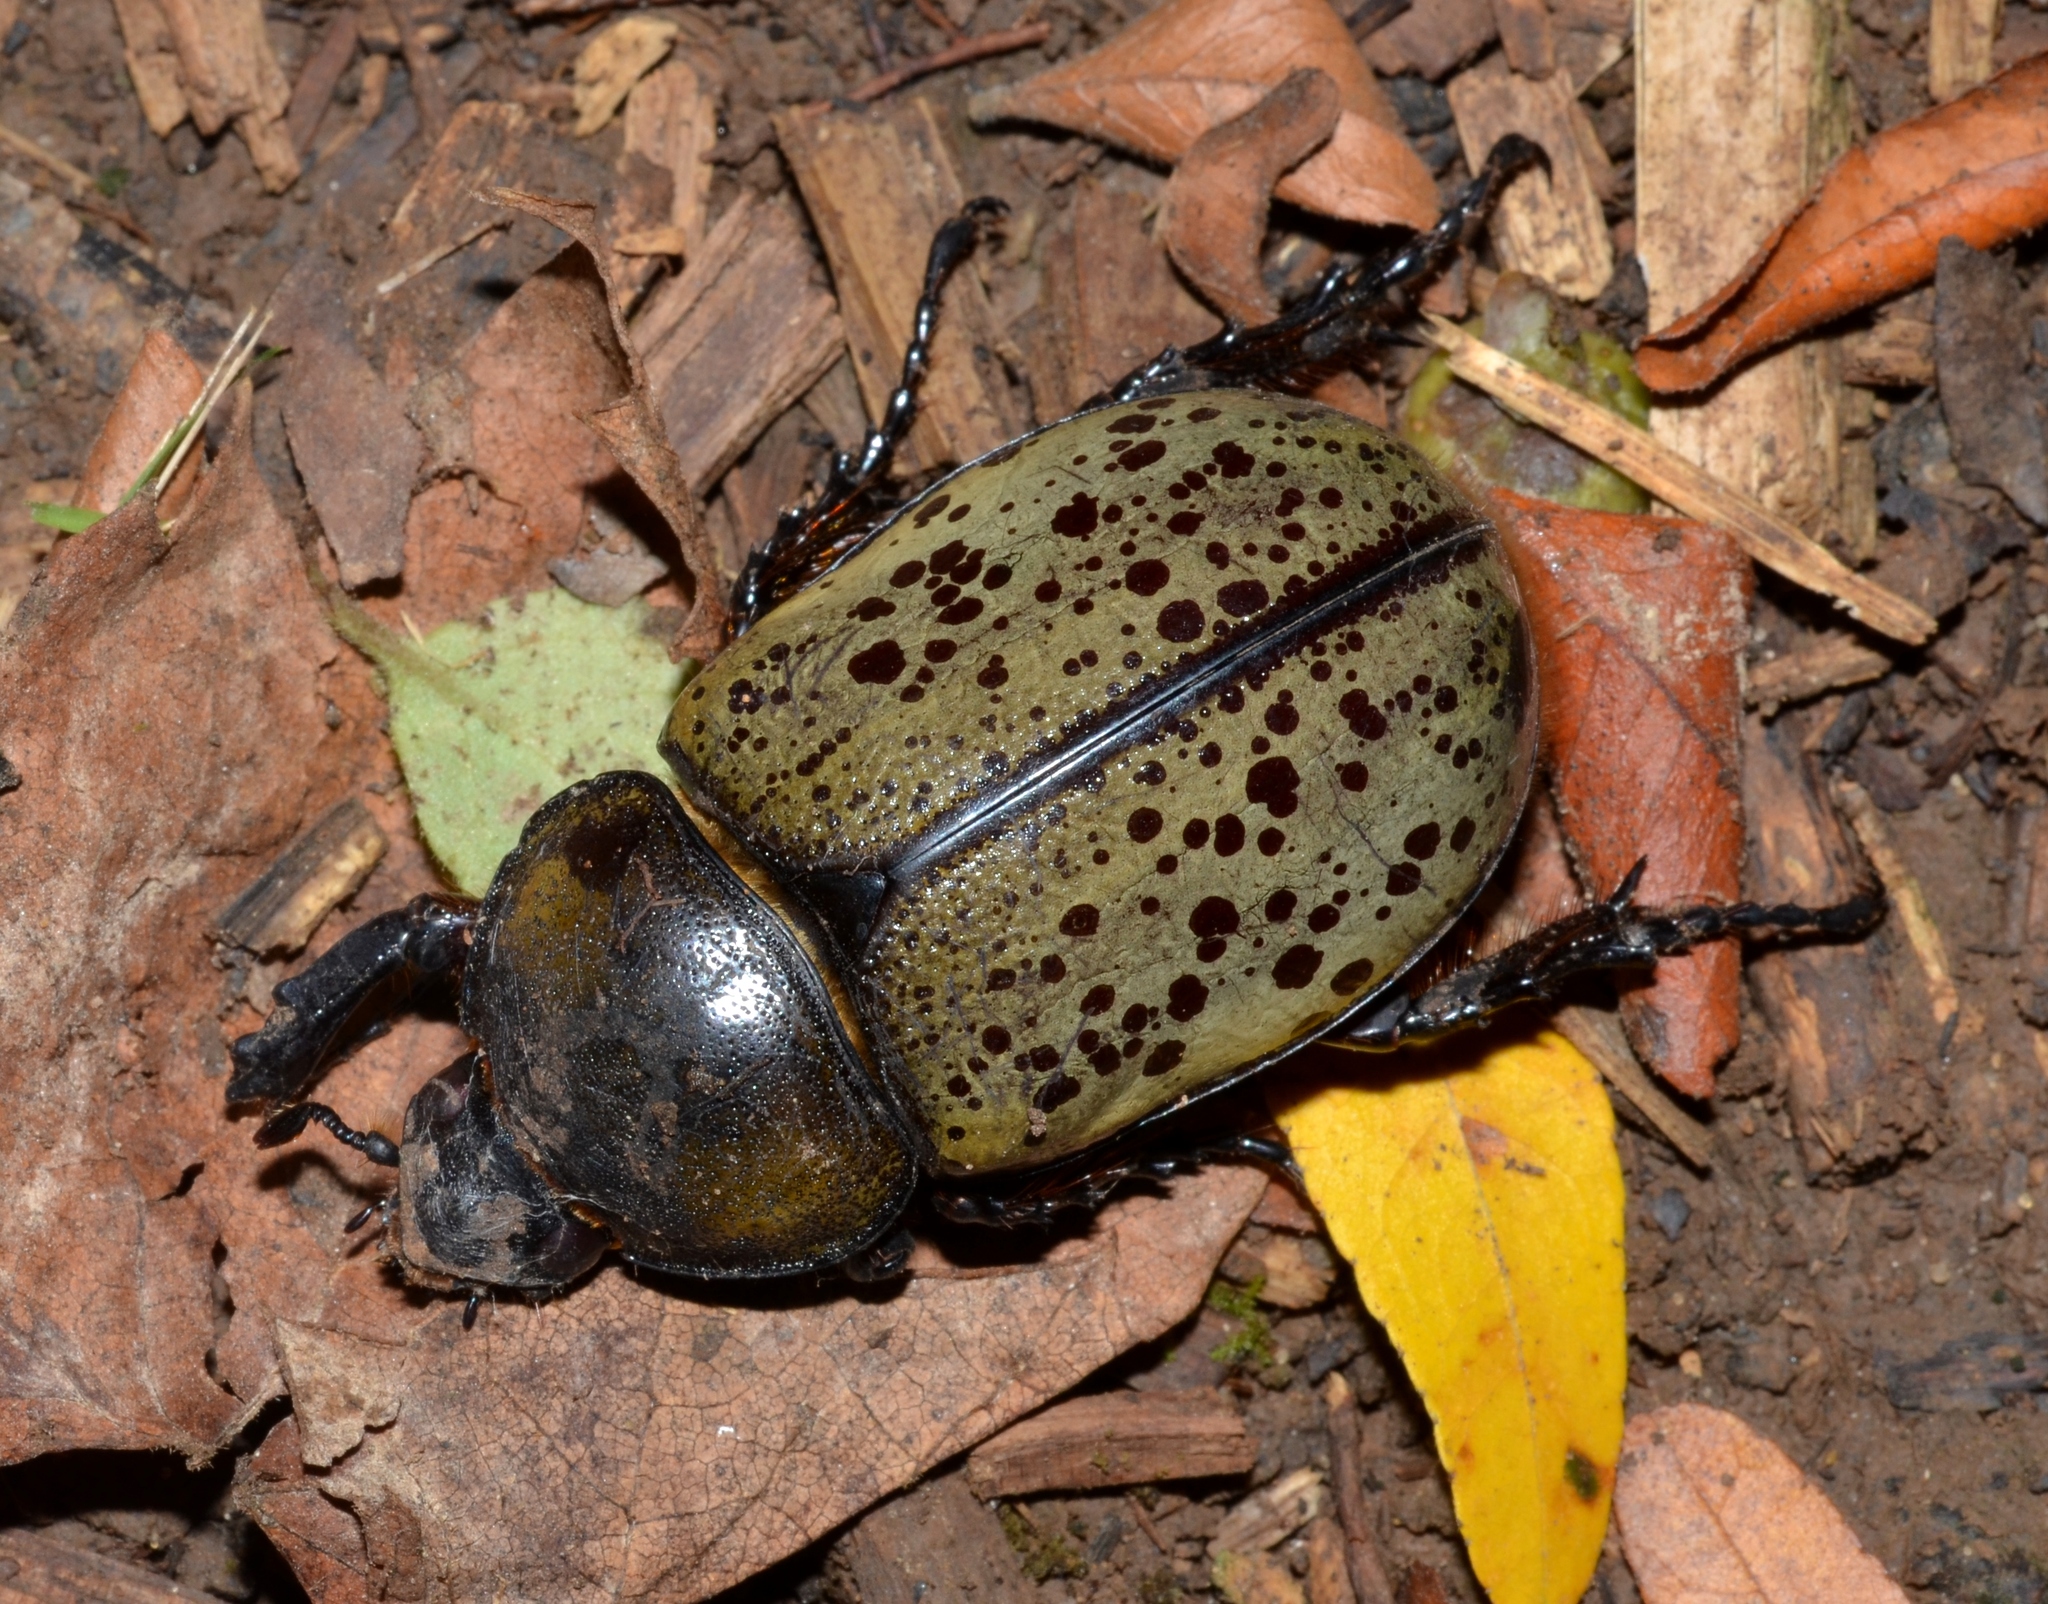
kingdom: Animalia
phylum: Arthropoda
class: Insecta
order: Coleoptera
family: Scarabaeidae
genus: Dynastes
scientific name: Dynastes tityus
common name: Eastern hercules beetle
